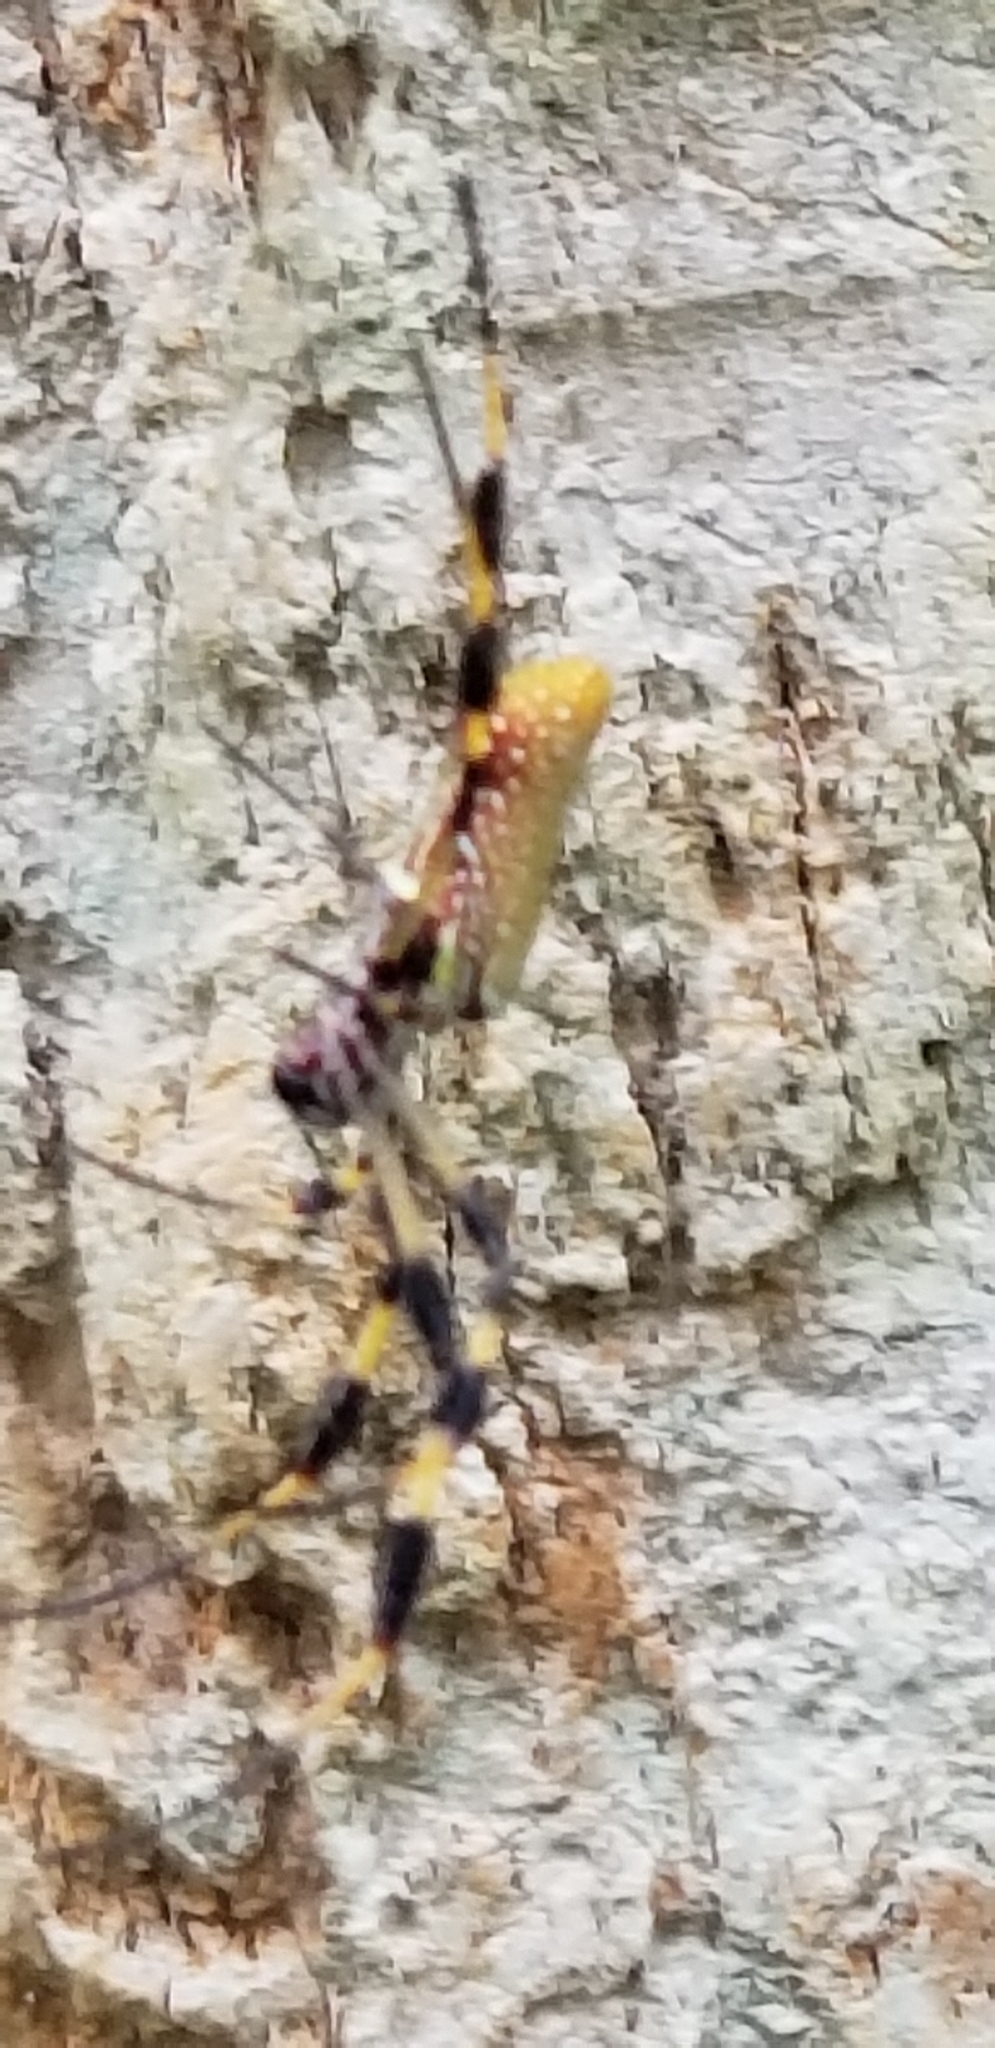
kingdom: Animalia
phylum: Arthropoda
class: Arachnida
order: Araneae
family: Araneidae
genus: Trichonephila
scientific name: Trichonephila clavipes
